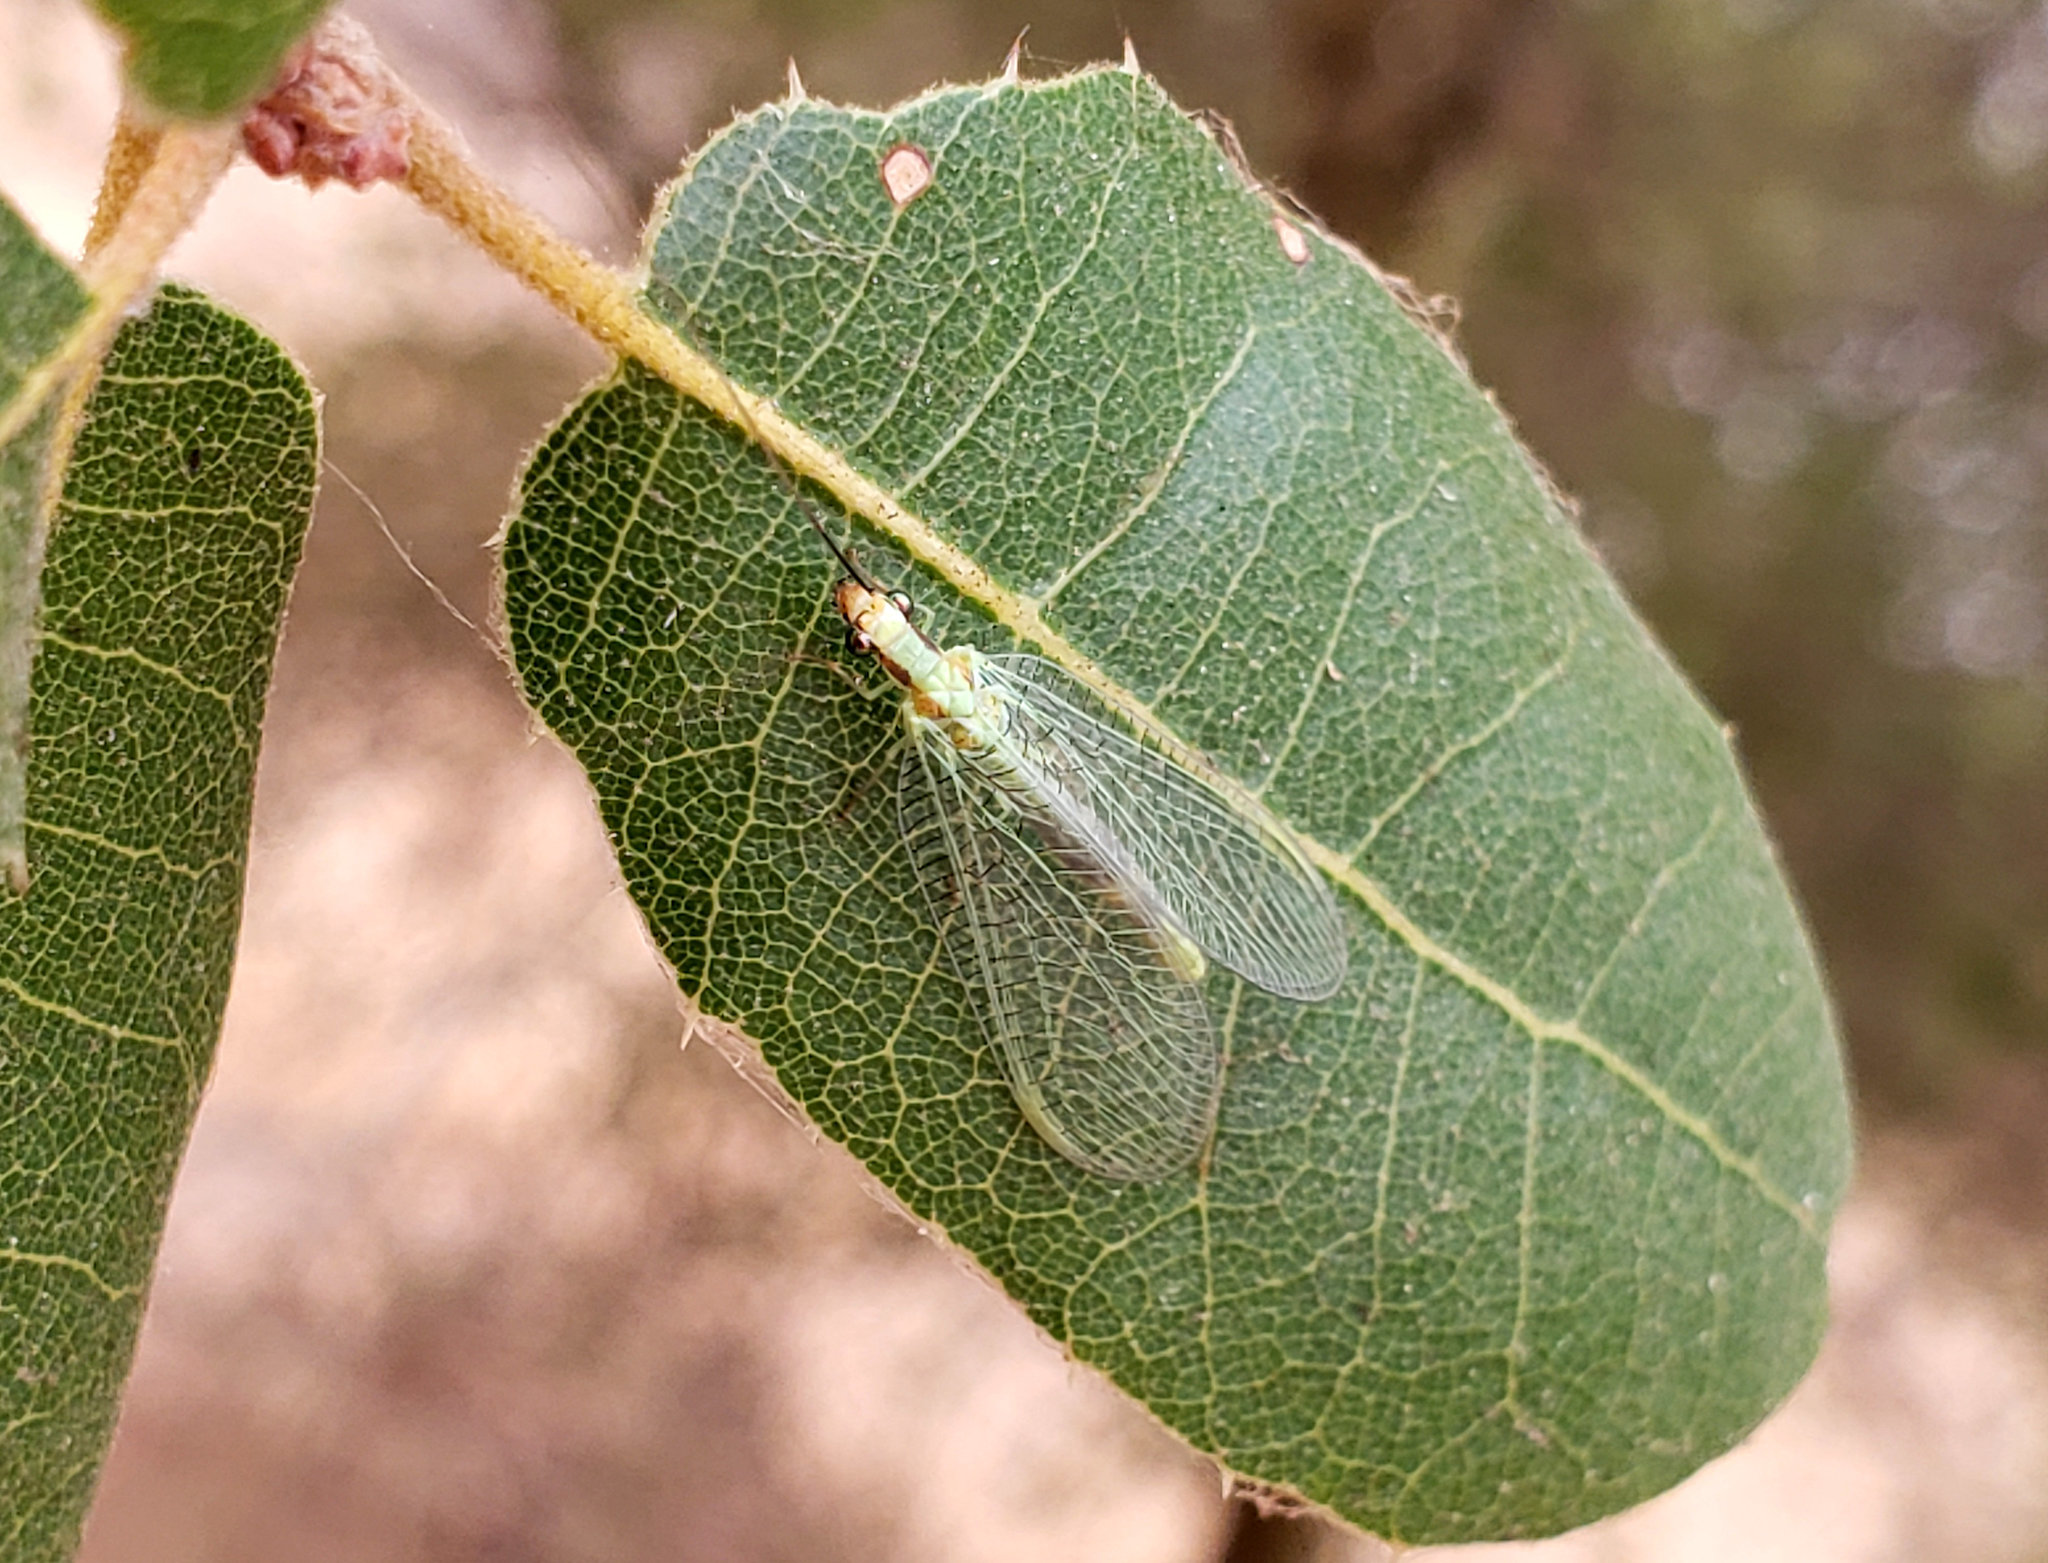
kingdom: Animalia
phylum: Arthropoda
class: Insecta
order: Neuroptera
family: Chrysopidae
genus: Chrysopa
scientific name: Chrysopa coloradensis
